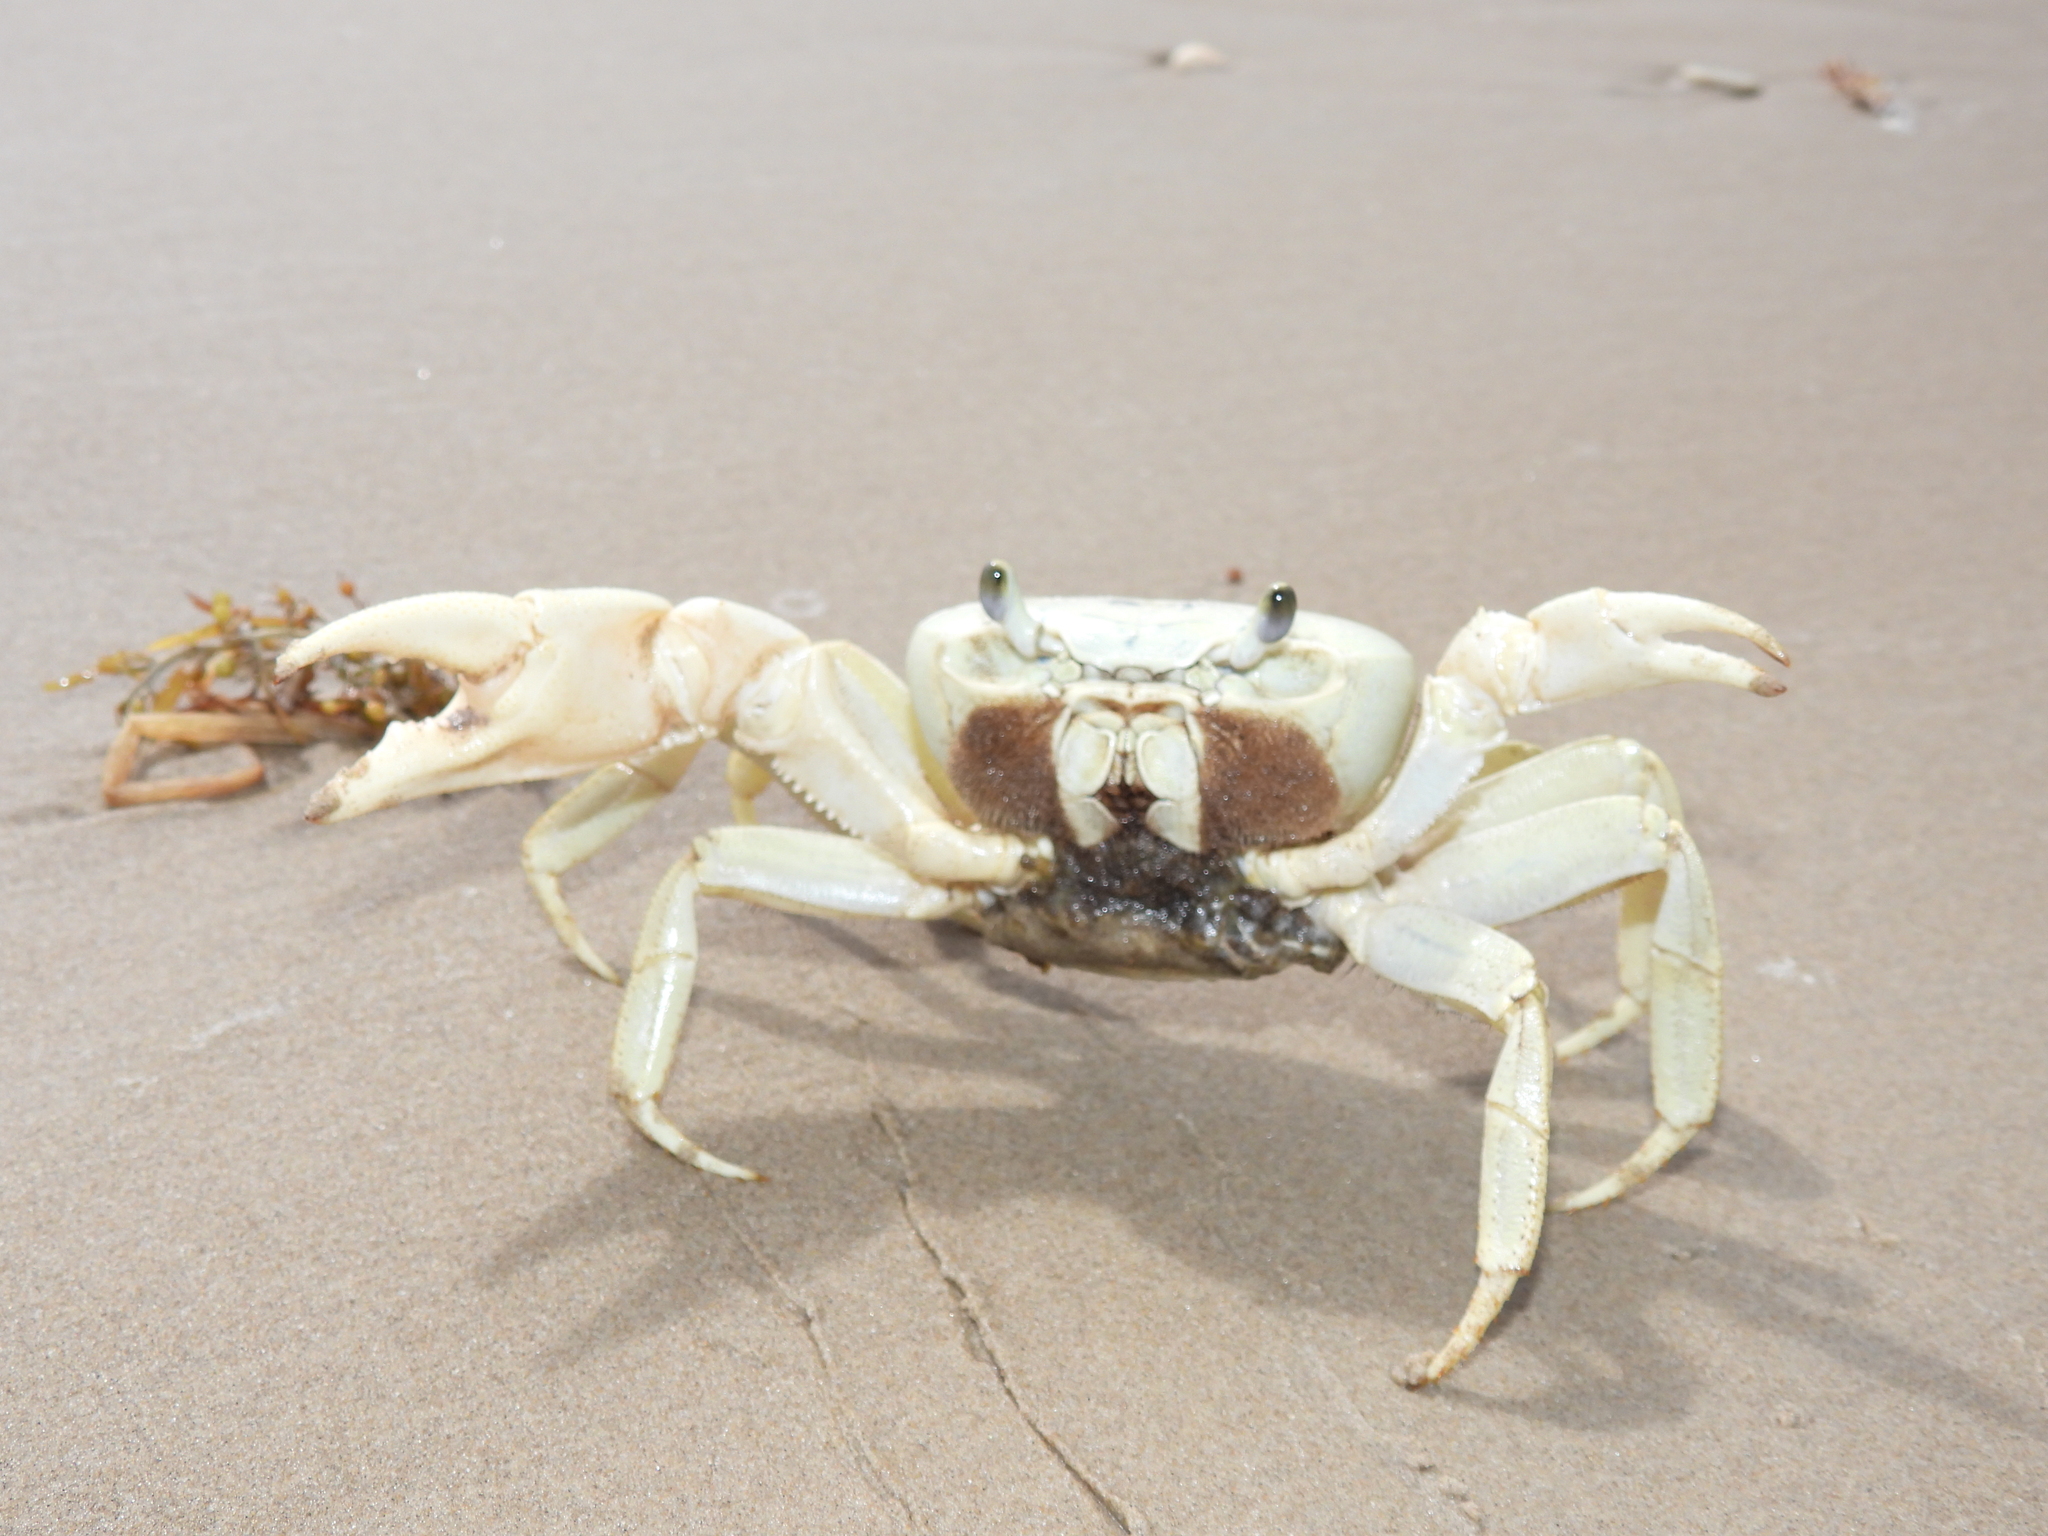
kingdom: Animalia
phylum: Arthropoda
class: Malacostraca
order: Decapoda
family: Gecarcinidae
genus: Cardisoma
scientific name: Cardisoma guanhumi
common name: Great land crab
